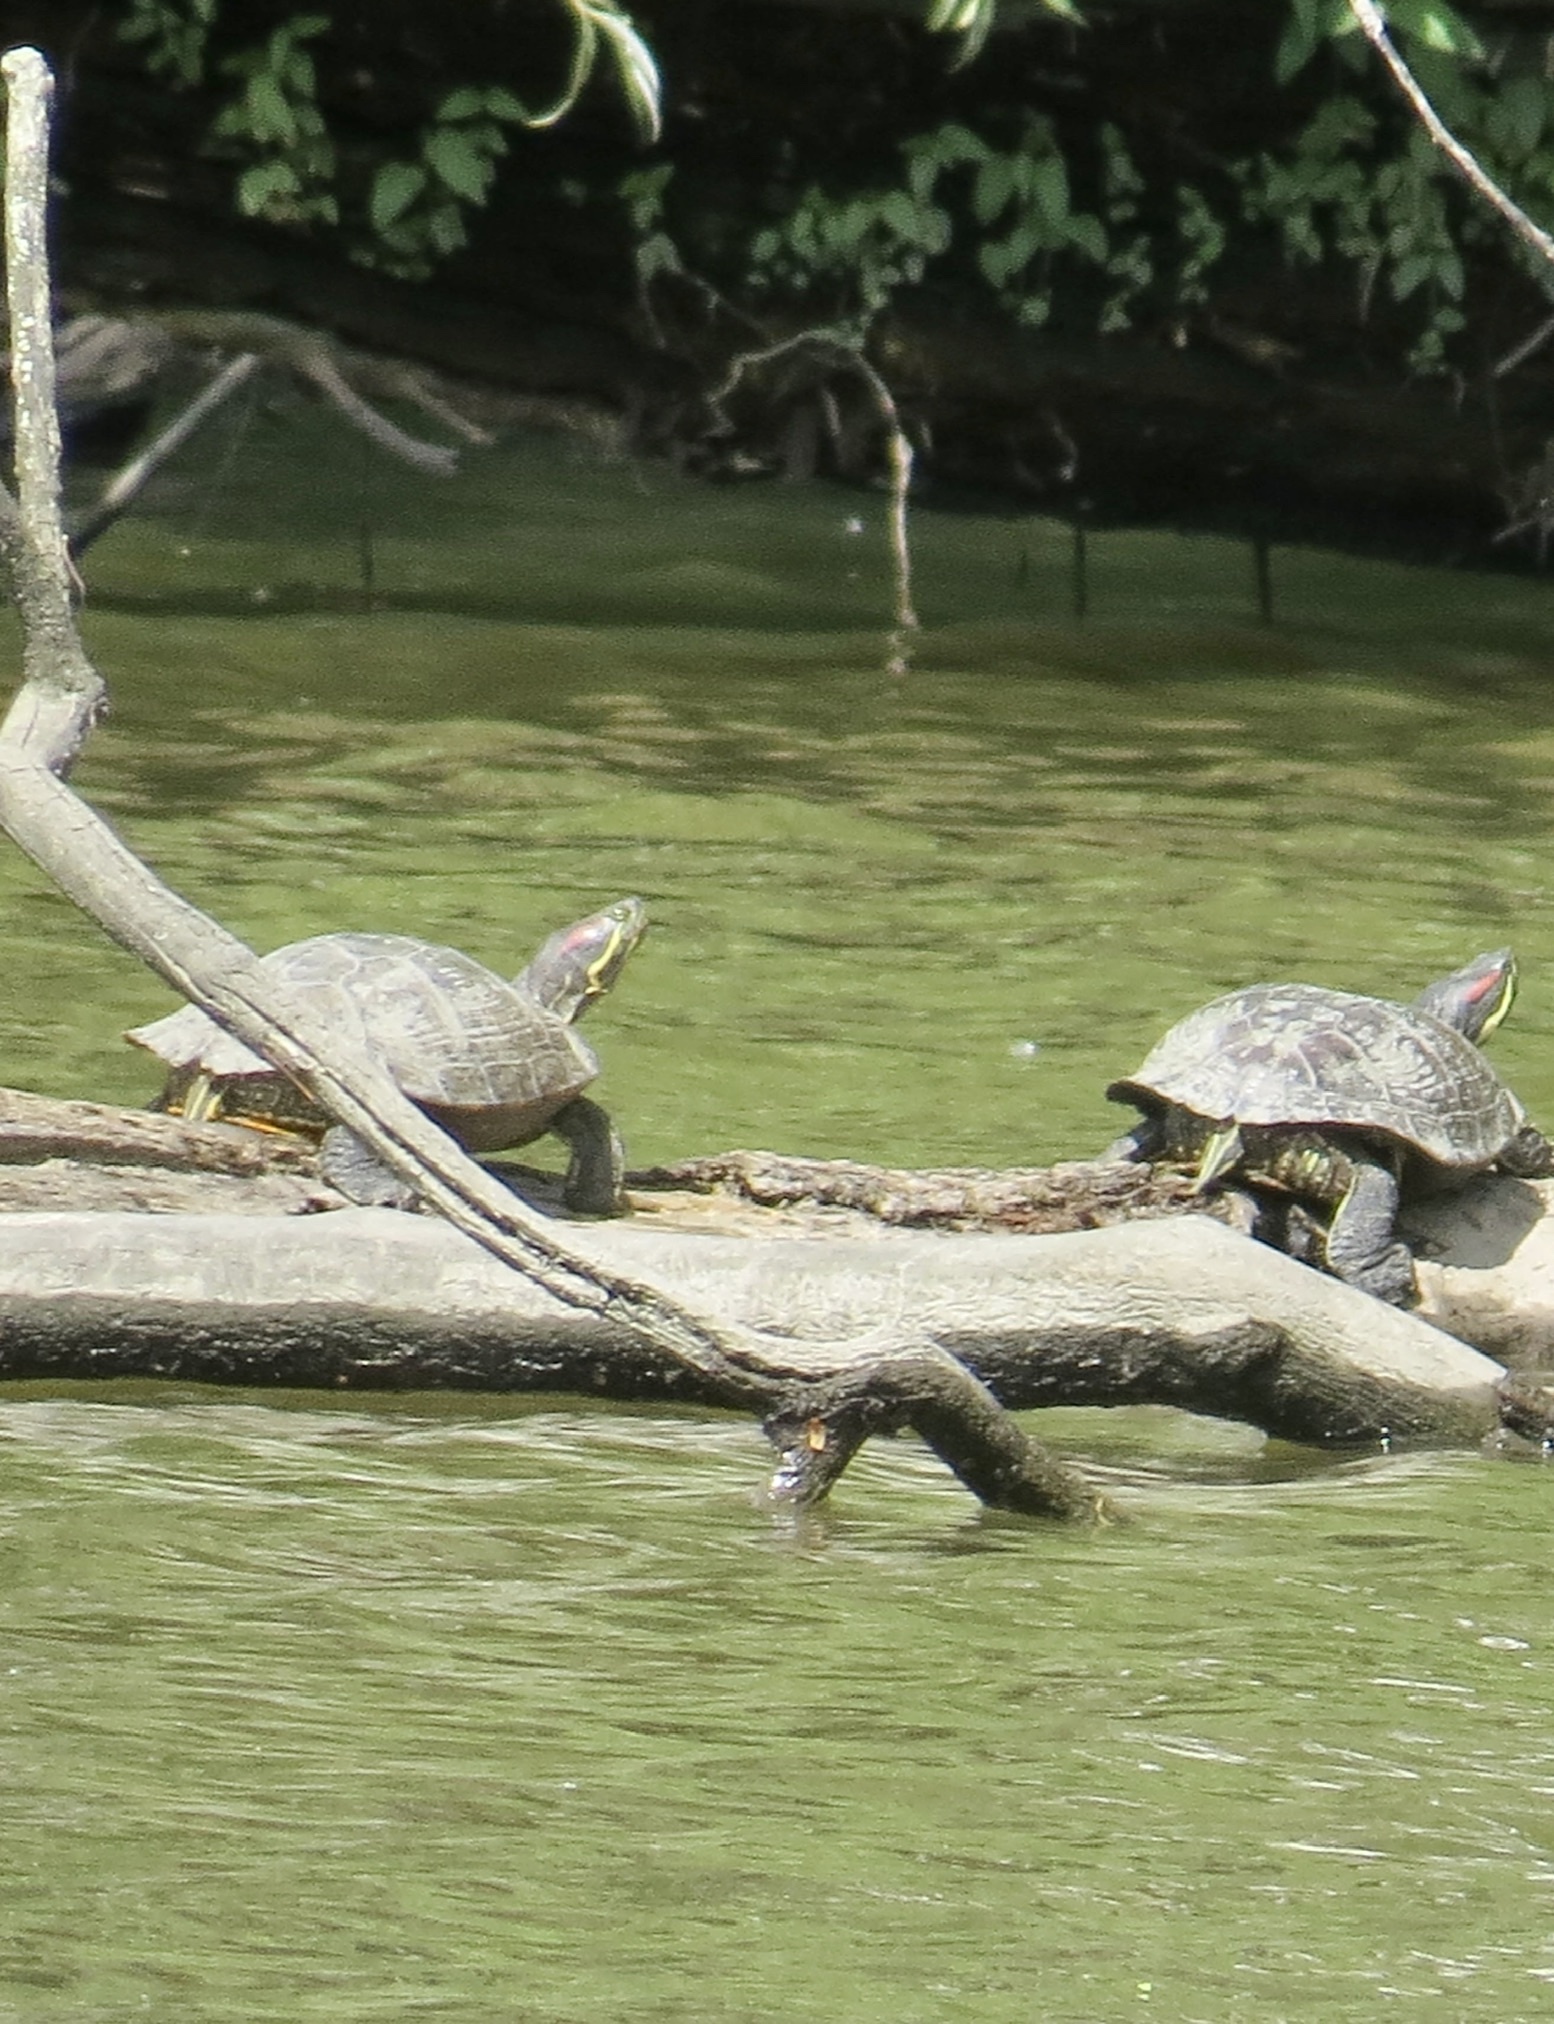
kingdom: Animalia
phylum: Chordata
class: Testudines
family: Emydidae
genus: Trachemys
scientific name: Trachemys scripta
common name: Slider
